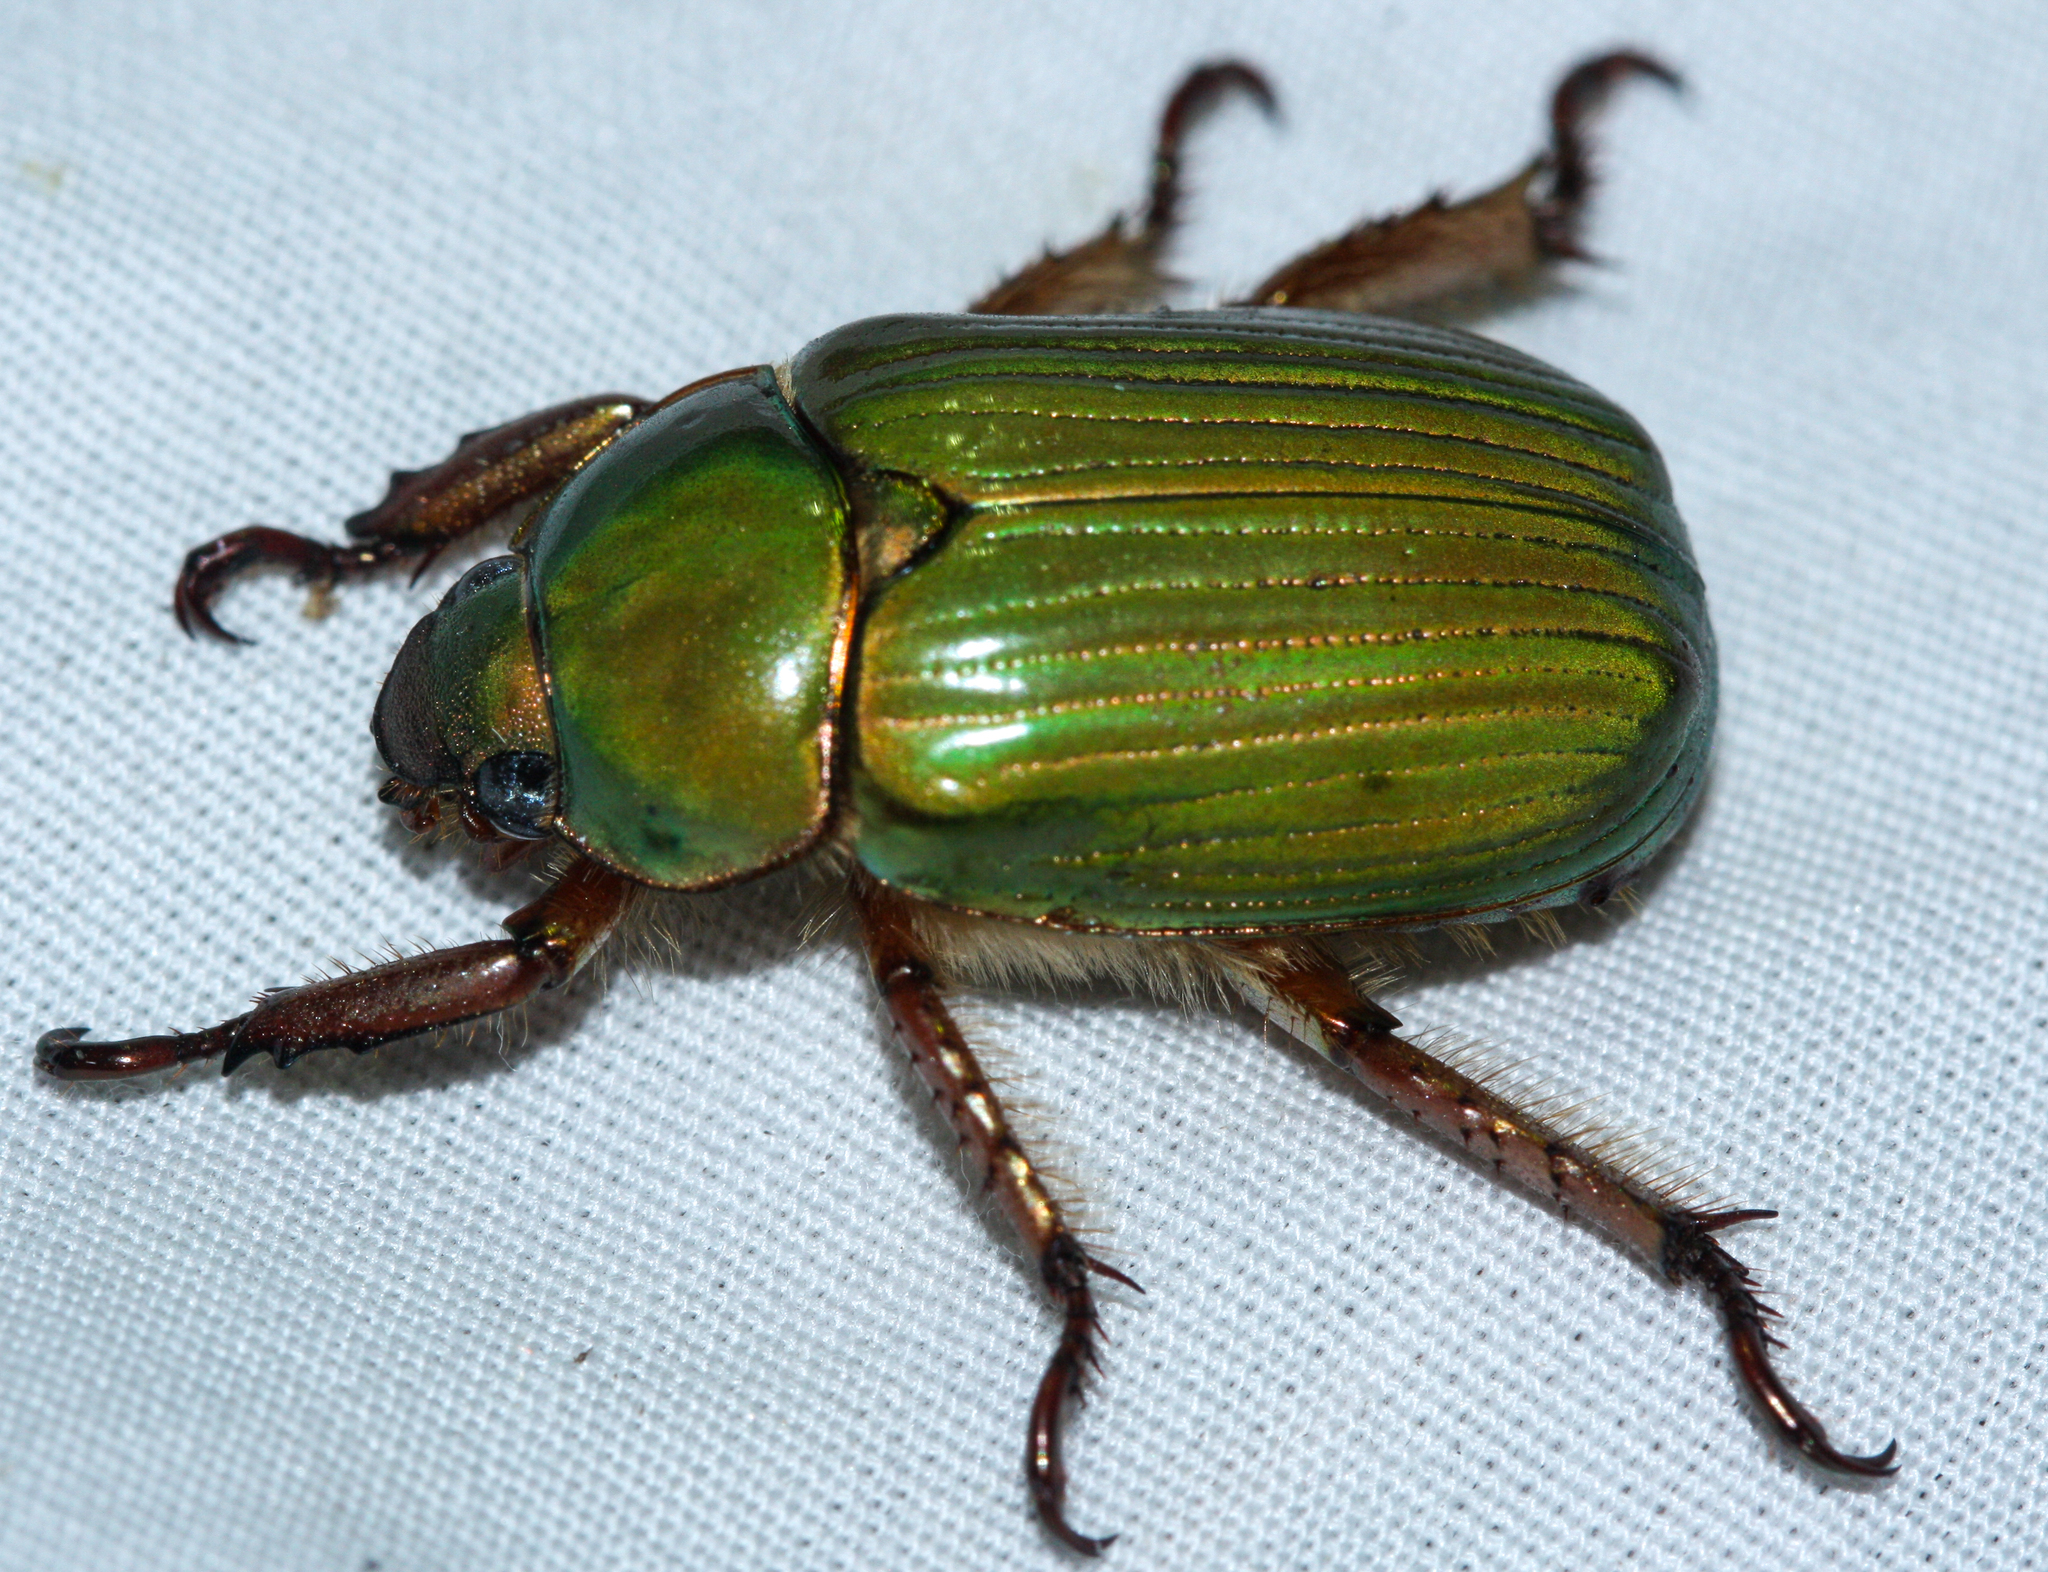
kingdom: Animalia
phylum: Arthropoda
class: Insecta
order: Coleoptera
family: Scarabaeidae
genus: Chrysina
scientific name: Chrysina lecontei
